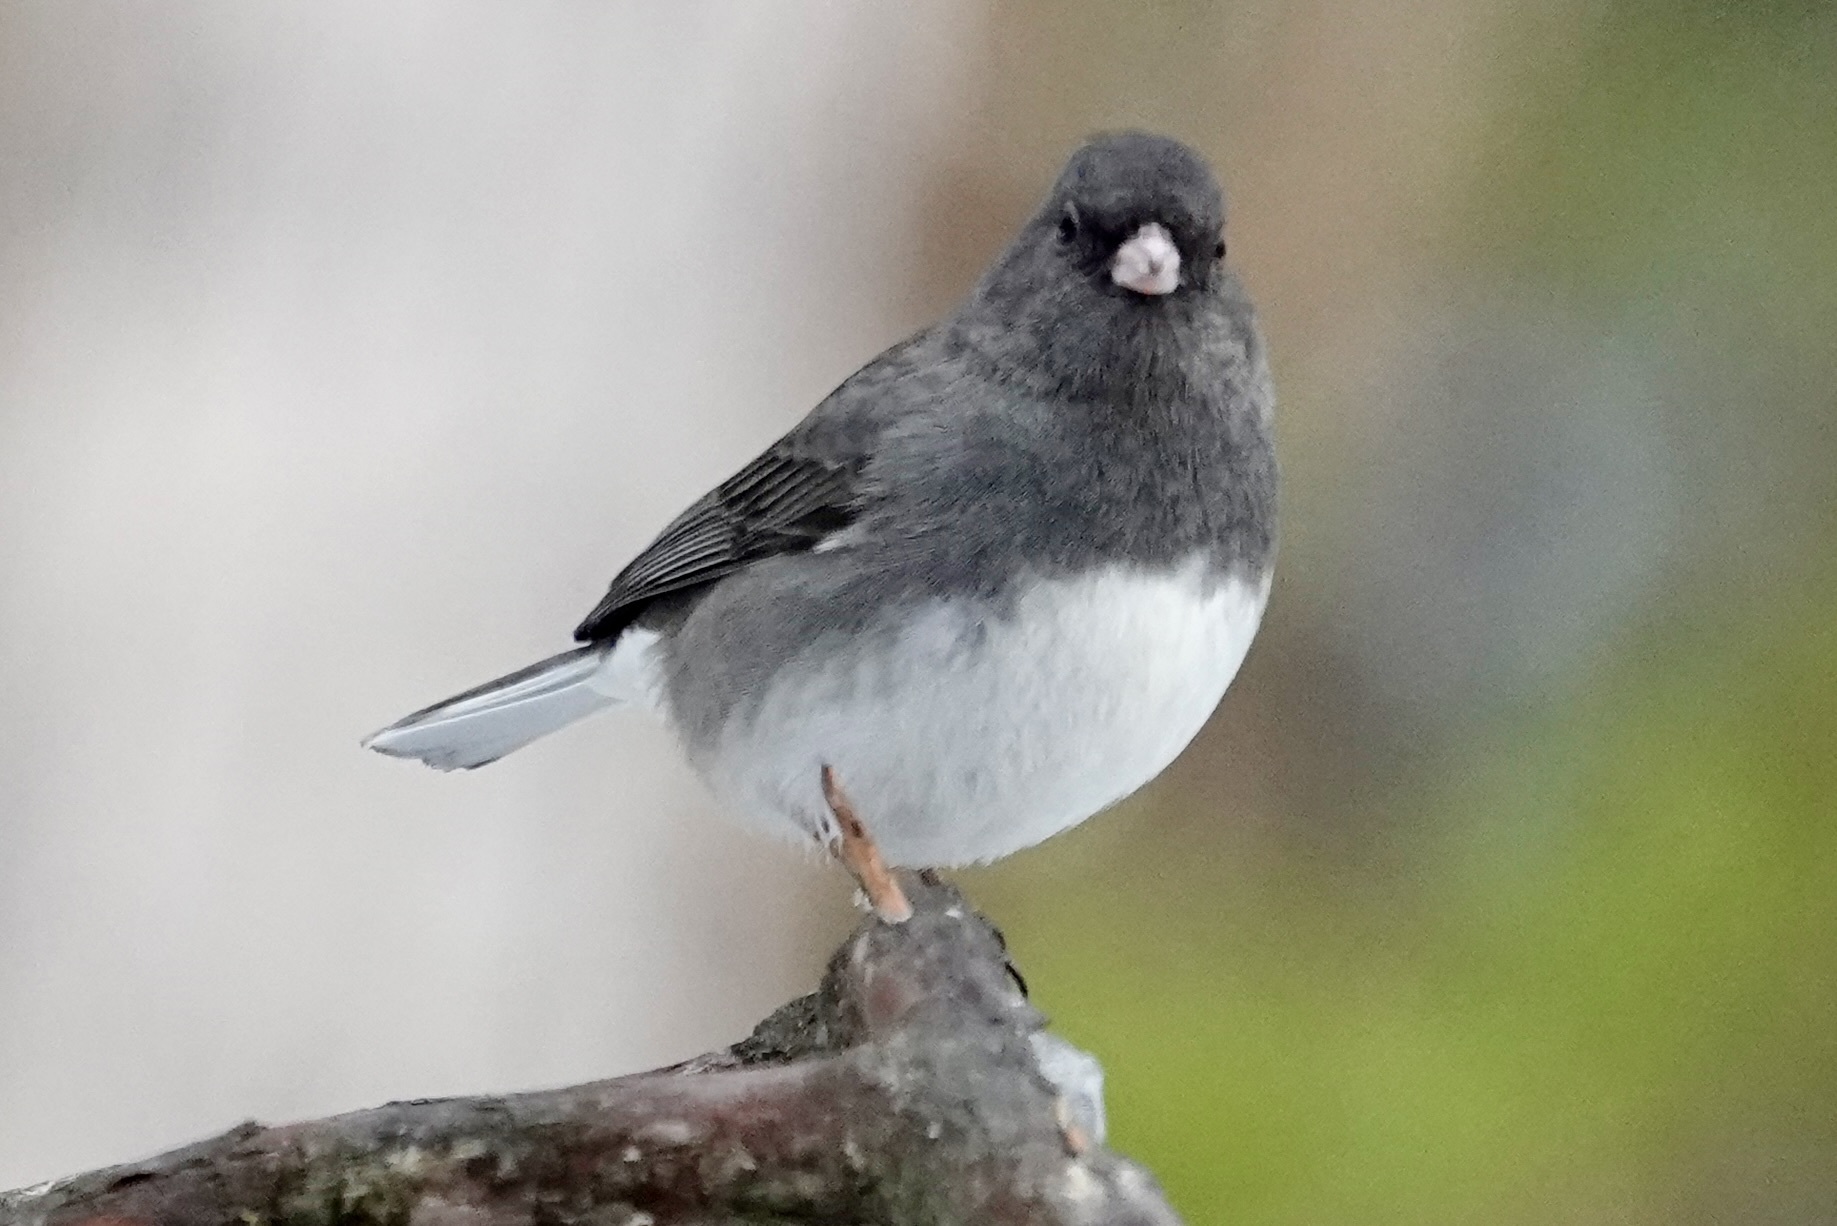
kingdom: Animalia
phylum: Chordata
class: Aves
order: Passeriformes
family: Passerellidae
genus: Junco
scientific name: Junco hyemalis
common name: Dark-eyed junco
